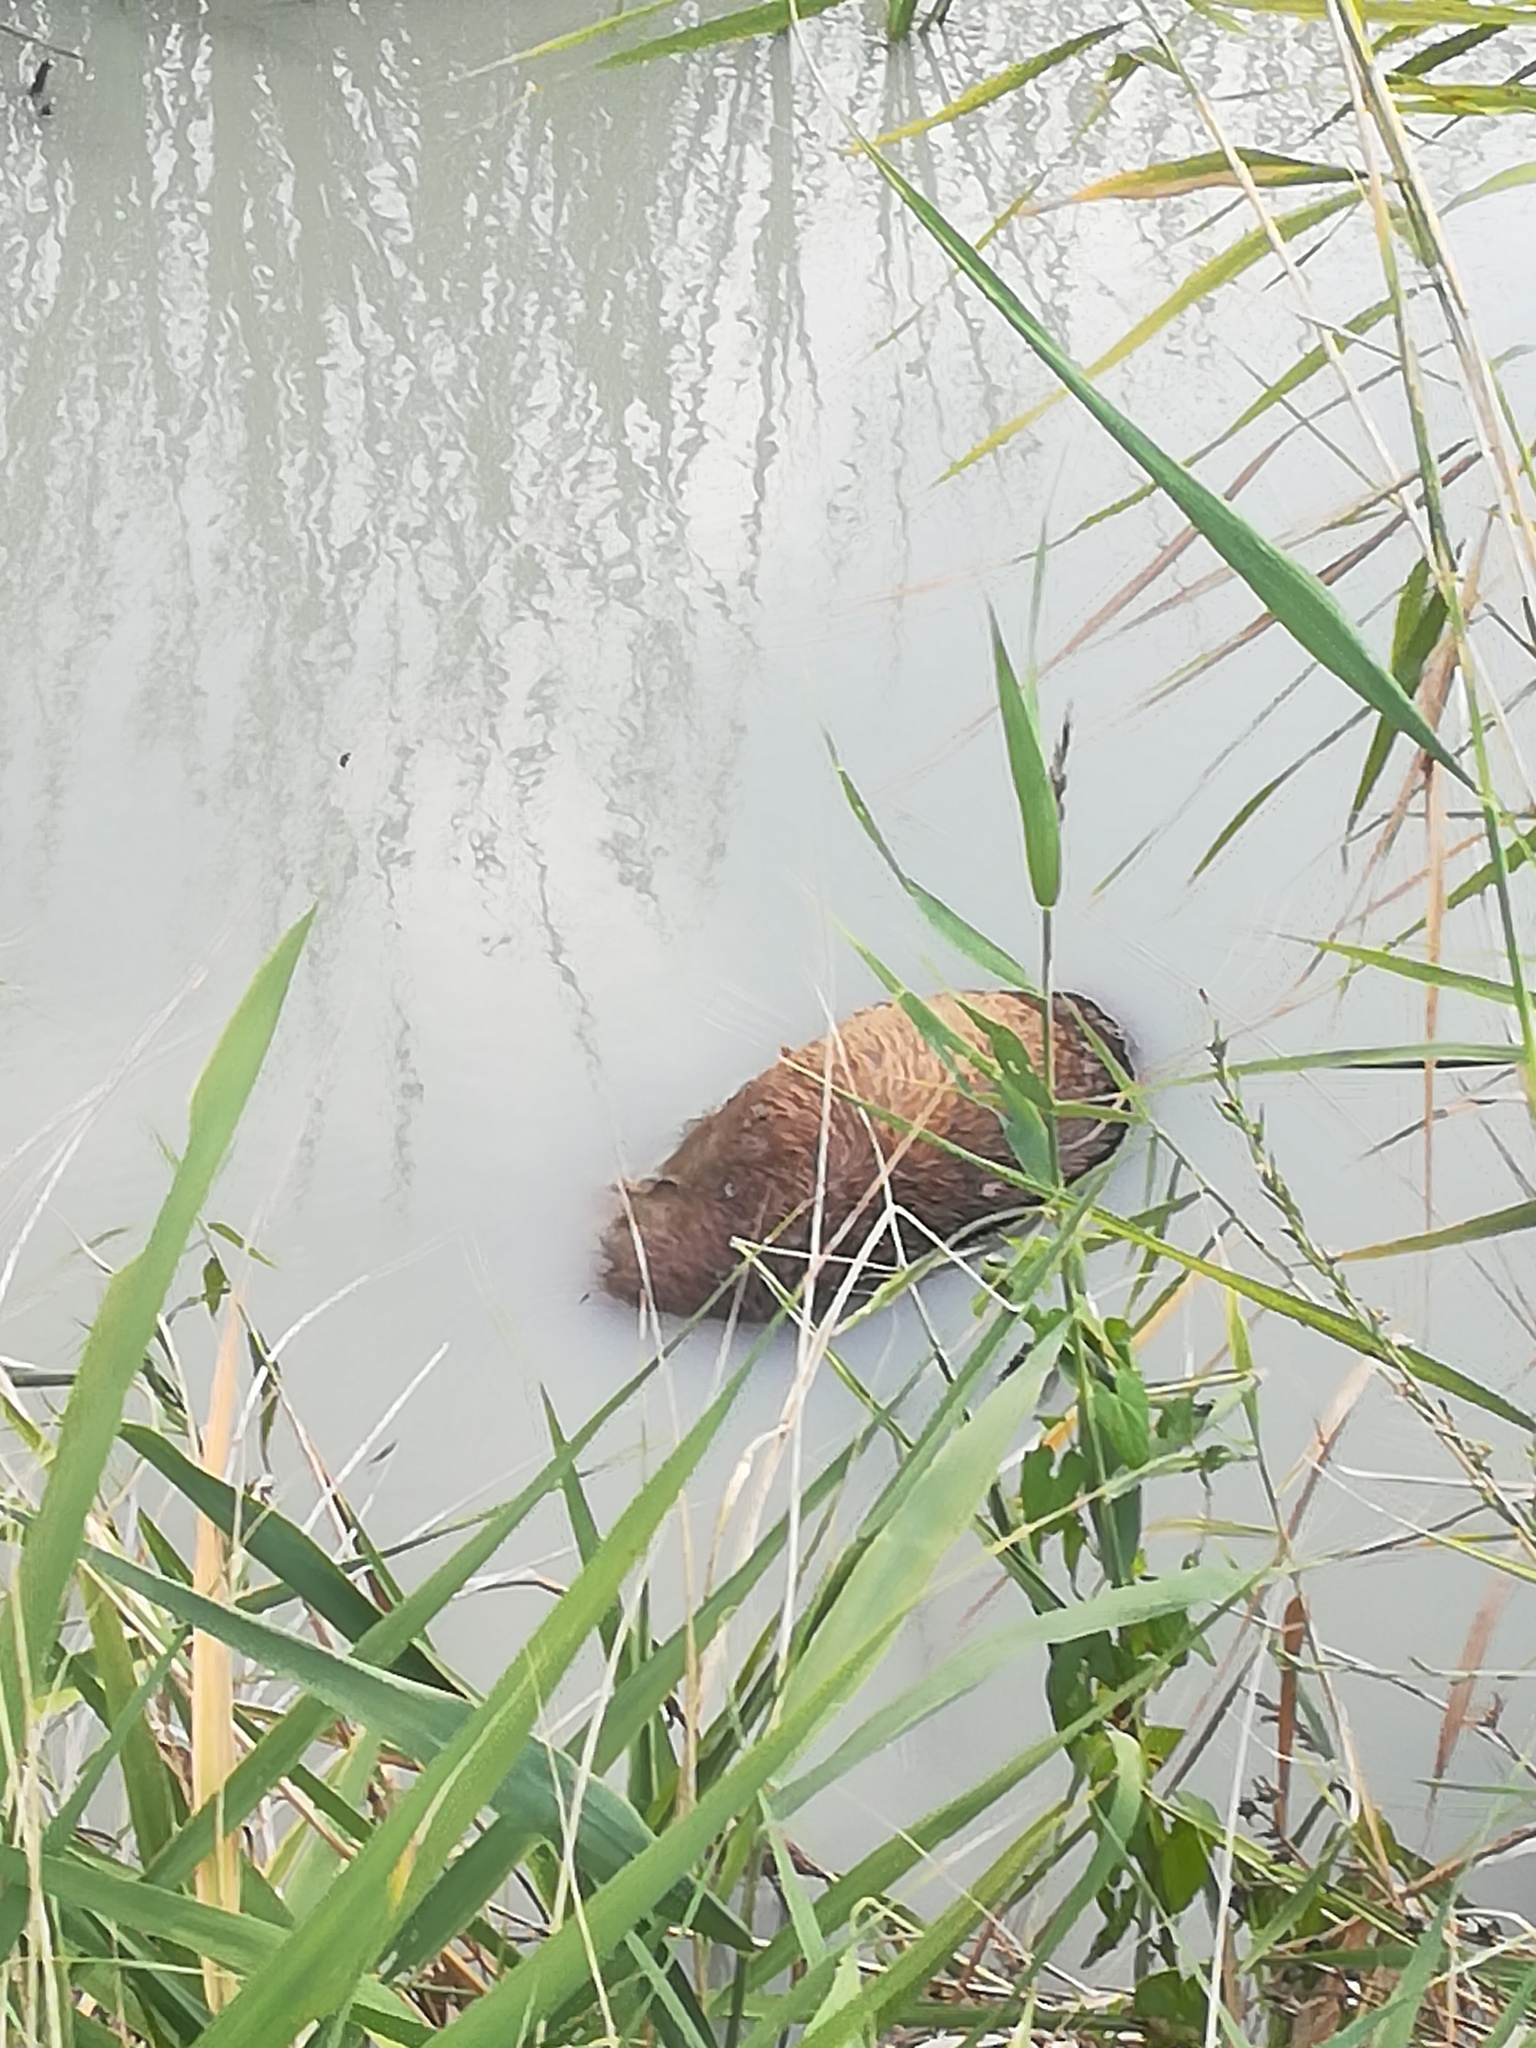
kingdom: Animalia
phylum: Chordata
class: Mammalia
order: Artiodactyla
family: Suidae
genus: Sus
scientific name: Sus scrofa
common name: Wild boar
